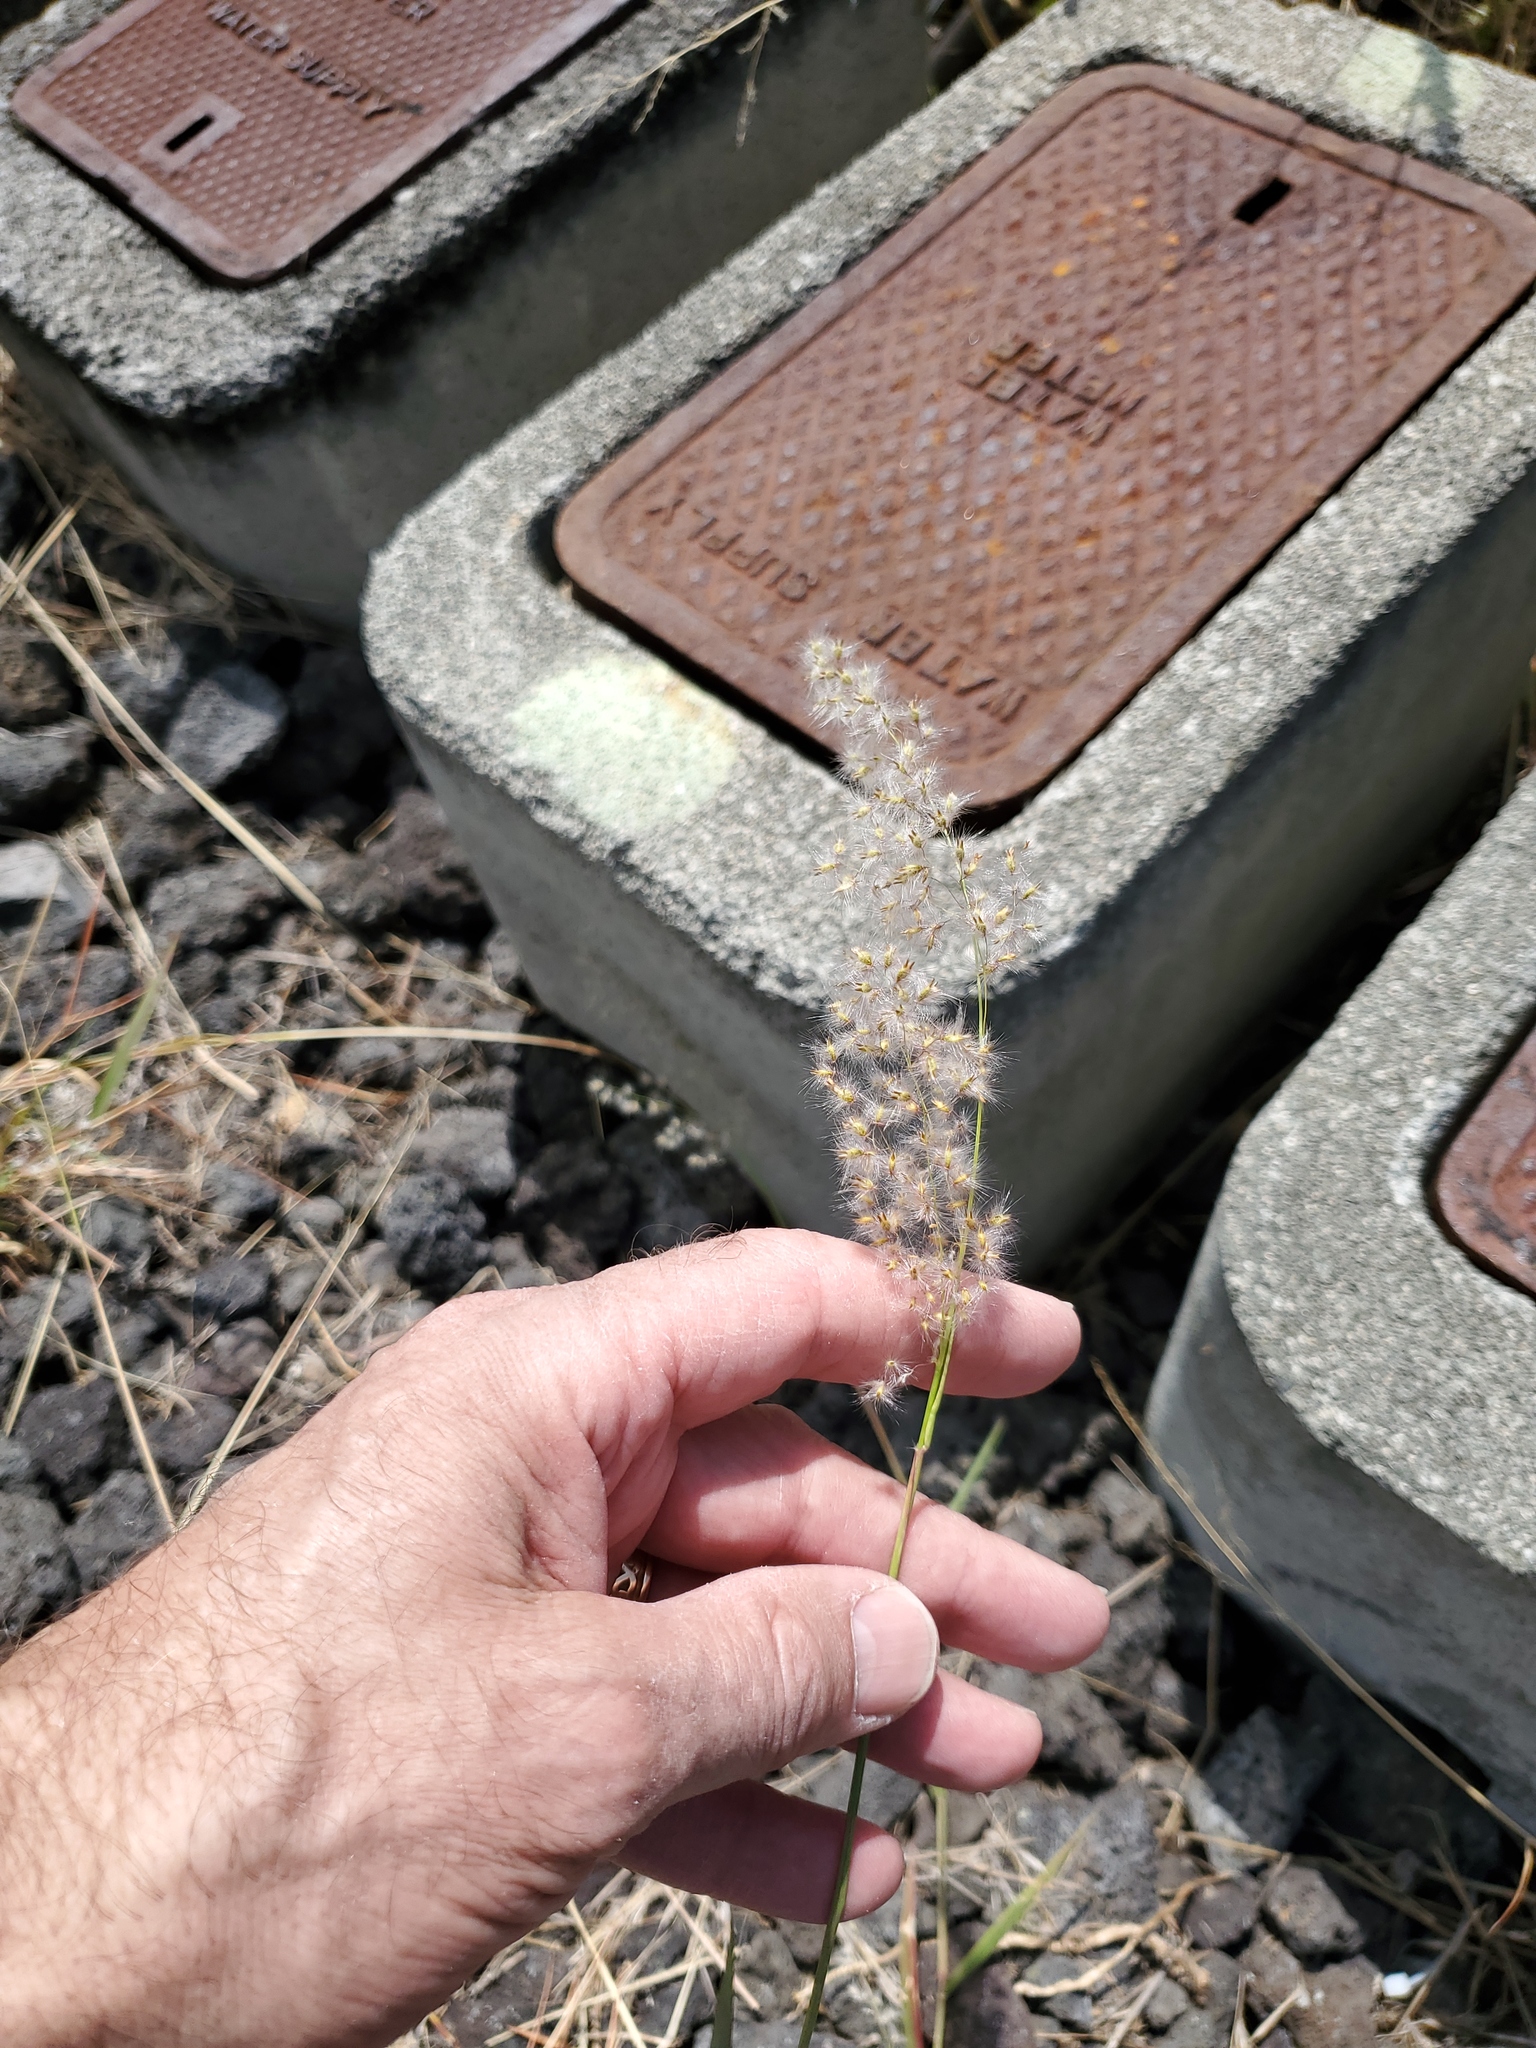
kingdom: Plantae
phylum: Tracheophyta
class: Liliopsida
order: Poales
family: Poaceae
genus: Melinis
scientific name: Melinis repens
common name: Rose natal grass
